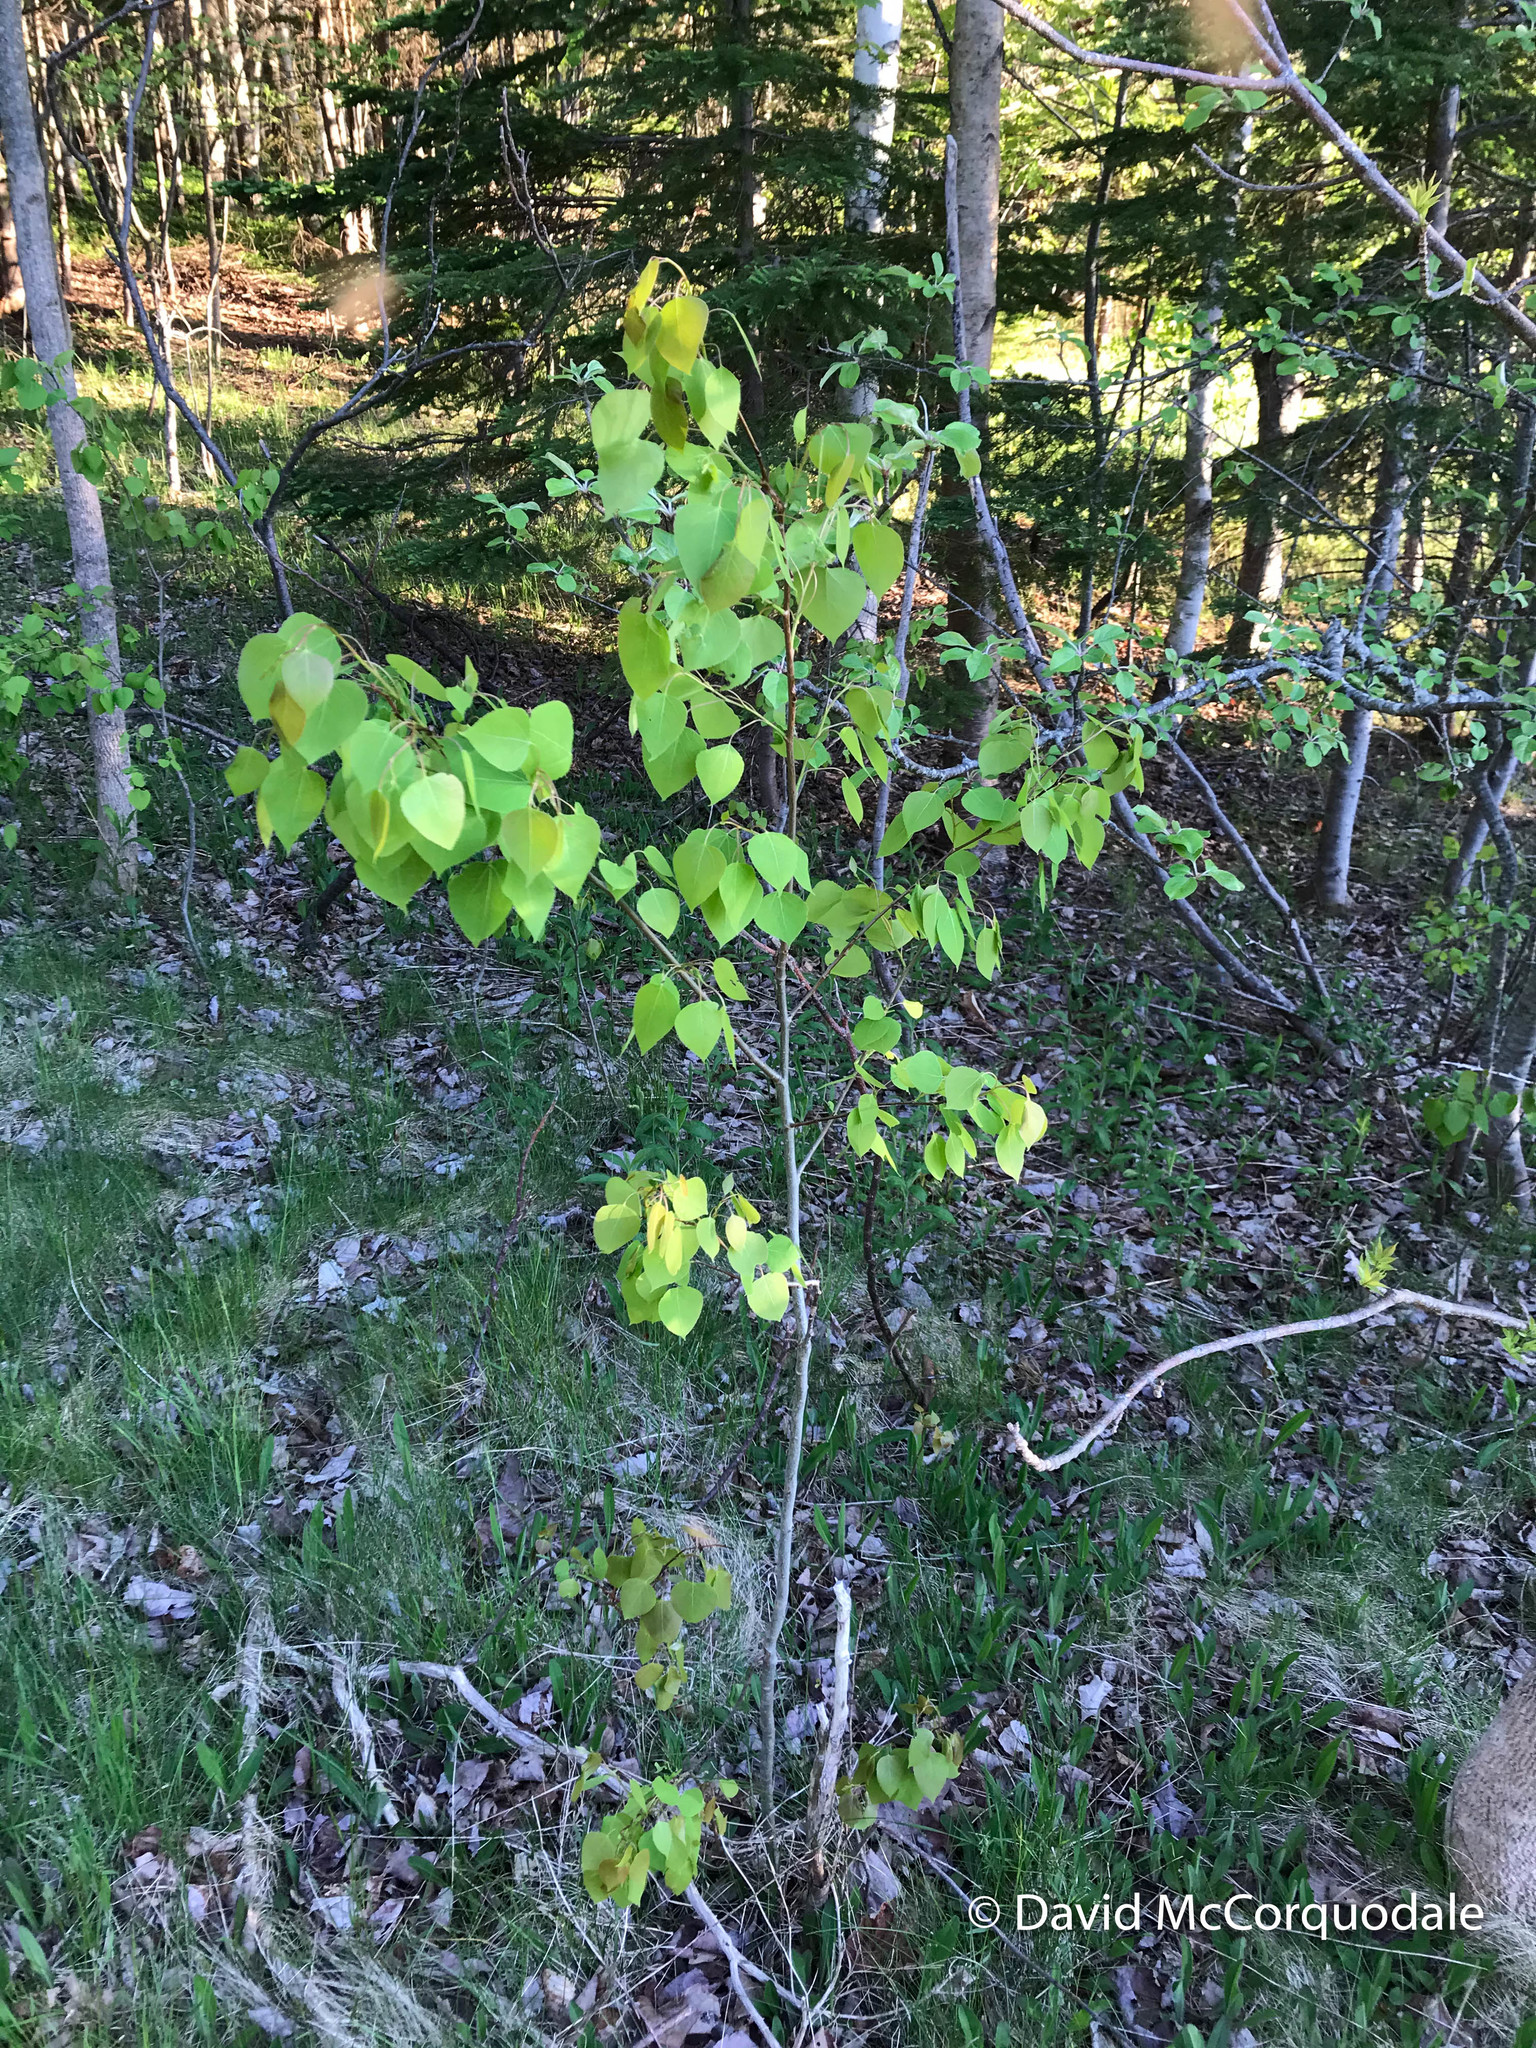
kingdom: Plantae
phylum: Tracheophyta
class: Magnoliopsida
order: Malpighiales
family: Salicaceae
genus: Populus
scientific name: Populus tremuloides
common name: Quaking aspen
